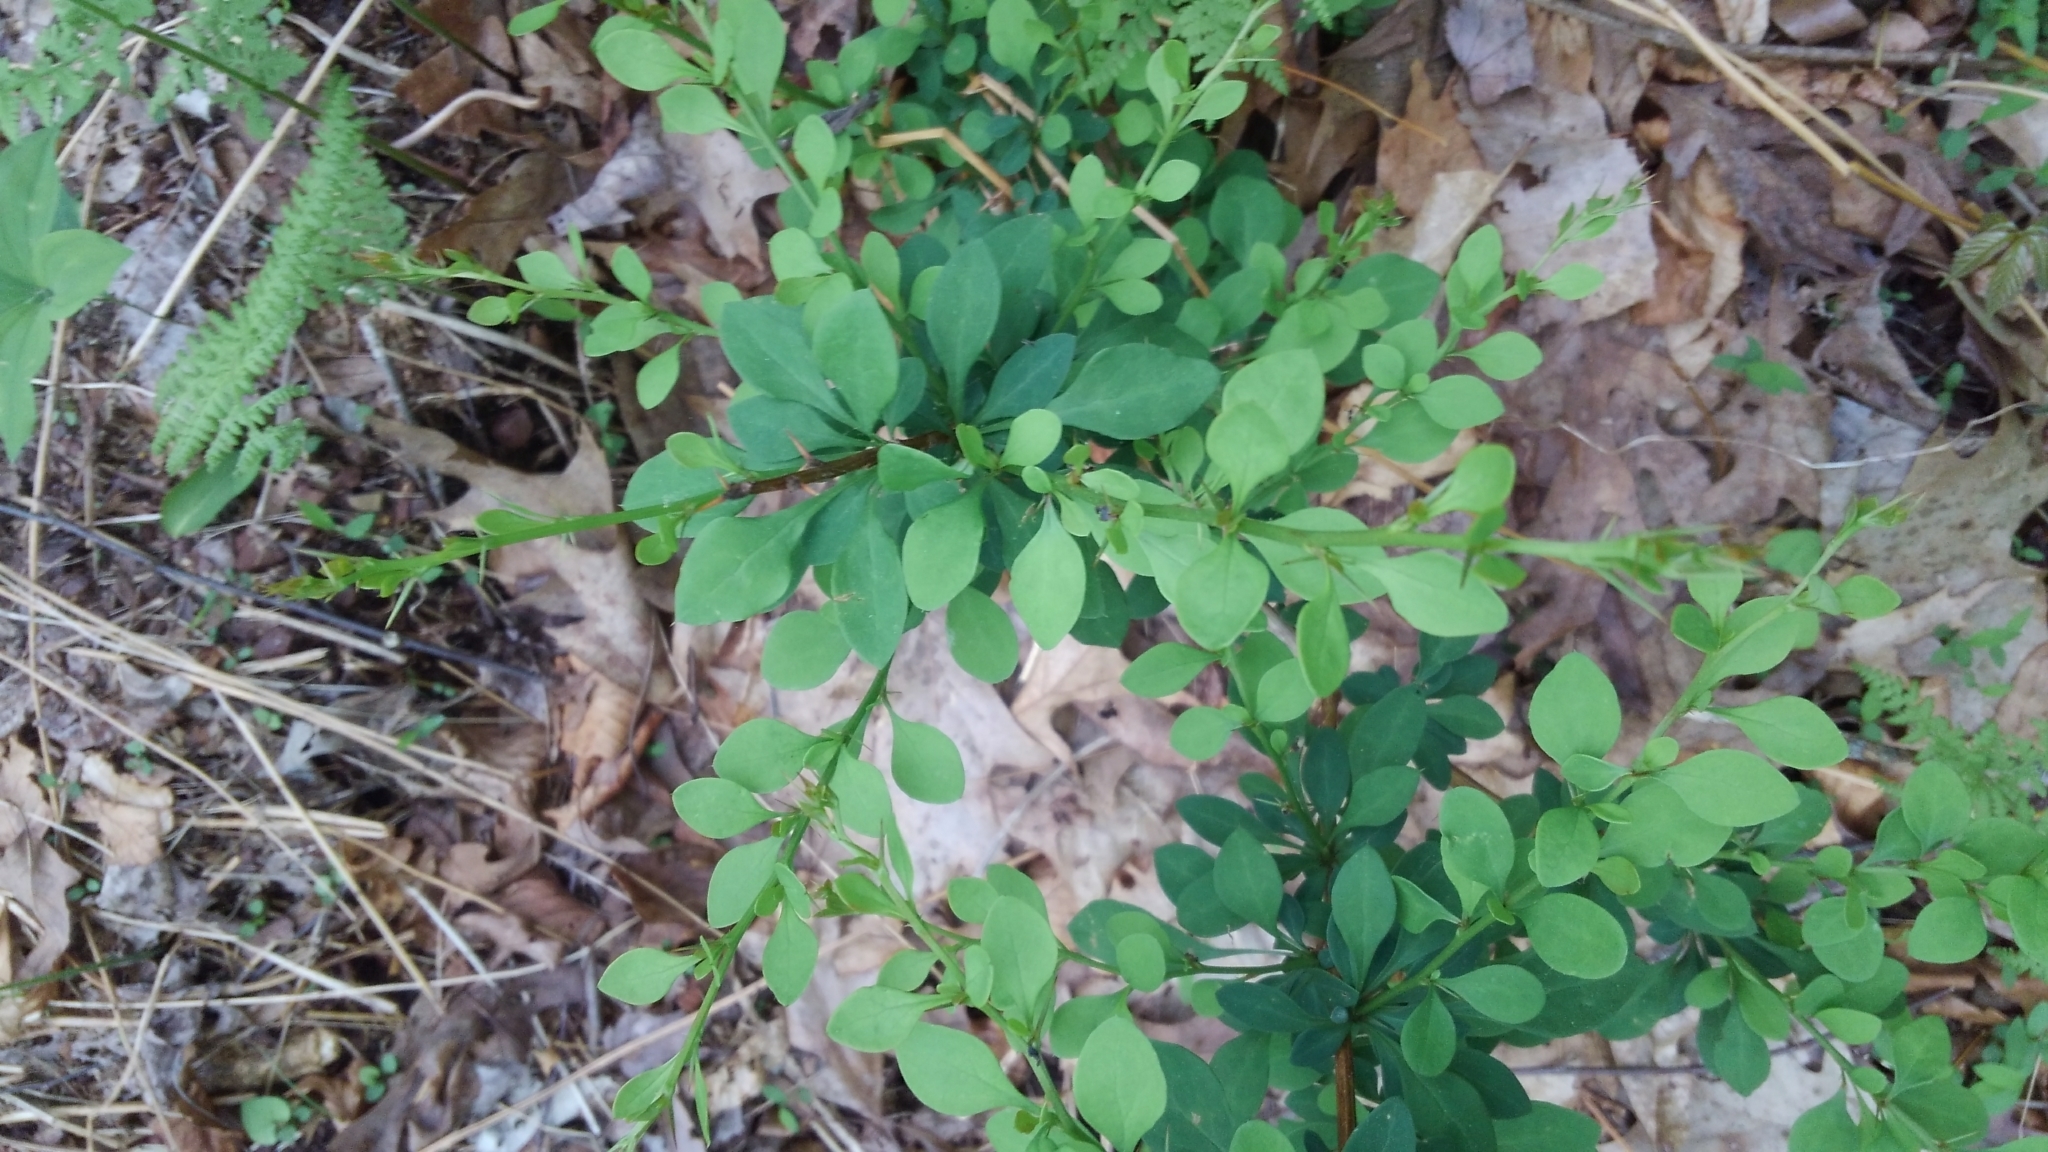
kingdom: Plantae
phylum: Tracheophyta
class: Magnoliopsida
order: Ranunculales
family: Berberidaceae
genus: Berberis
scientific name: Berberis thunbergii
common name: Japanese barberry
